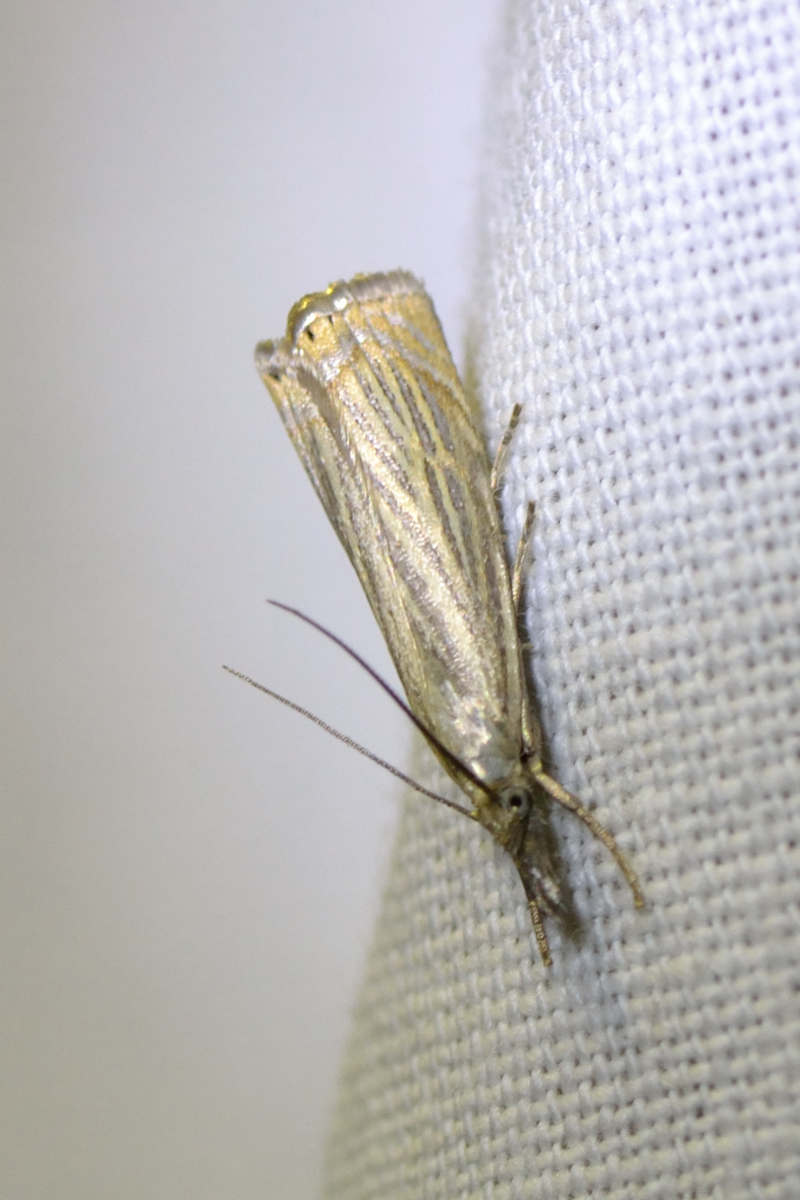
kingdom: Animalia
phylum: Arthropoda
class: Insecta
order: Lepidoptera
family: Crambidae
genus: Chrysoteuchia
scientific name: Chrysoteuchia culmella
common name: Garden grass-veneer
